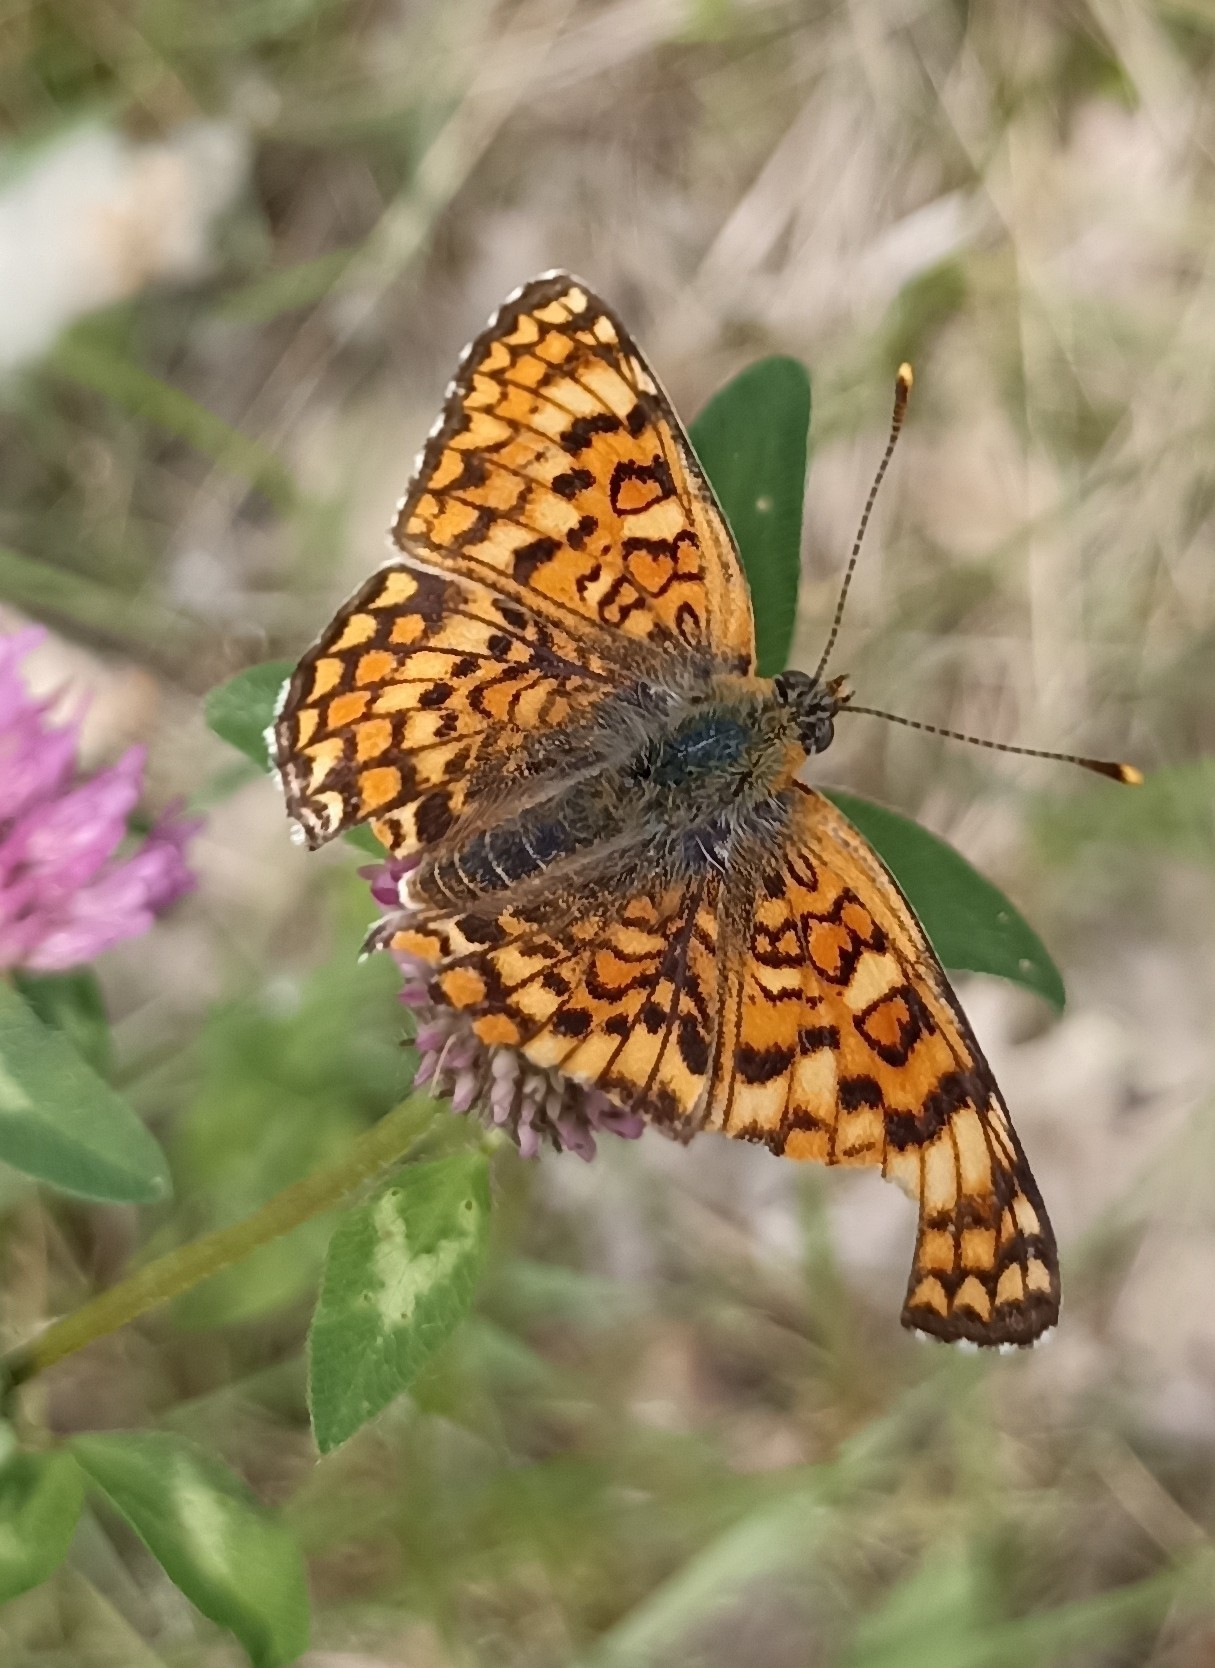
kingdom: Animalia
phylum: Arthropoda
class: Insecta
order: Lepidoptera
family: Nymphalidae
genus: Melitaea
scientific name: Melitaea phoebe
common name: Knapweed fritillary
